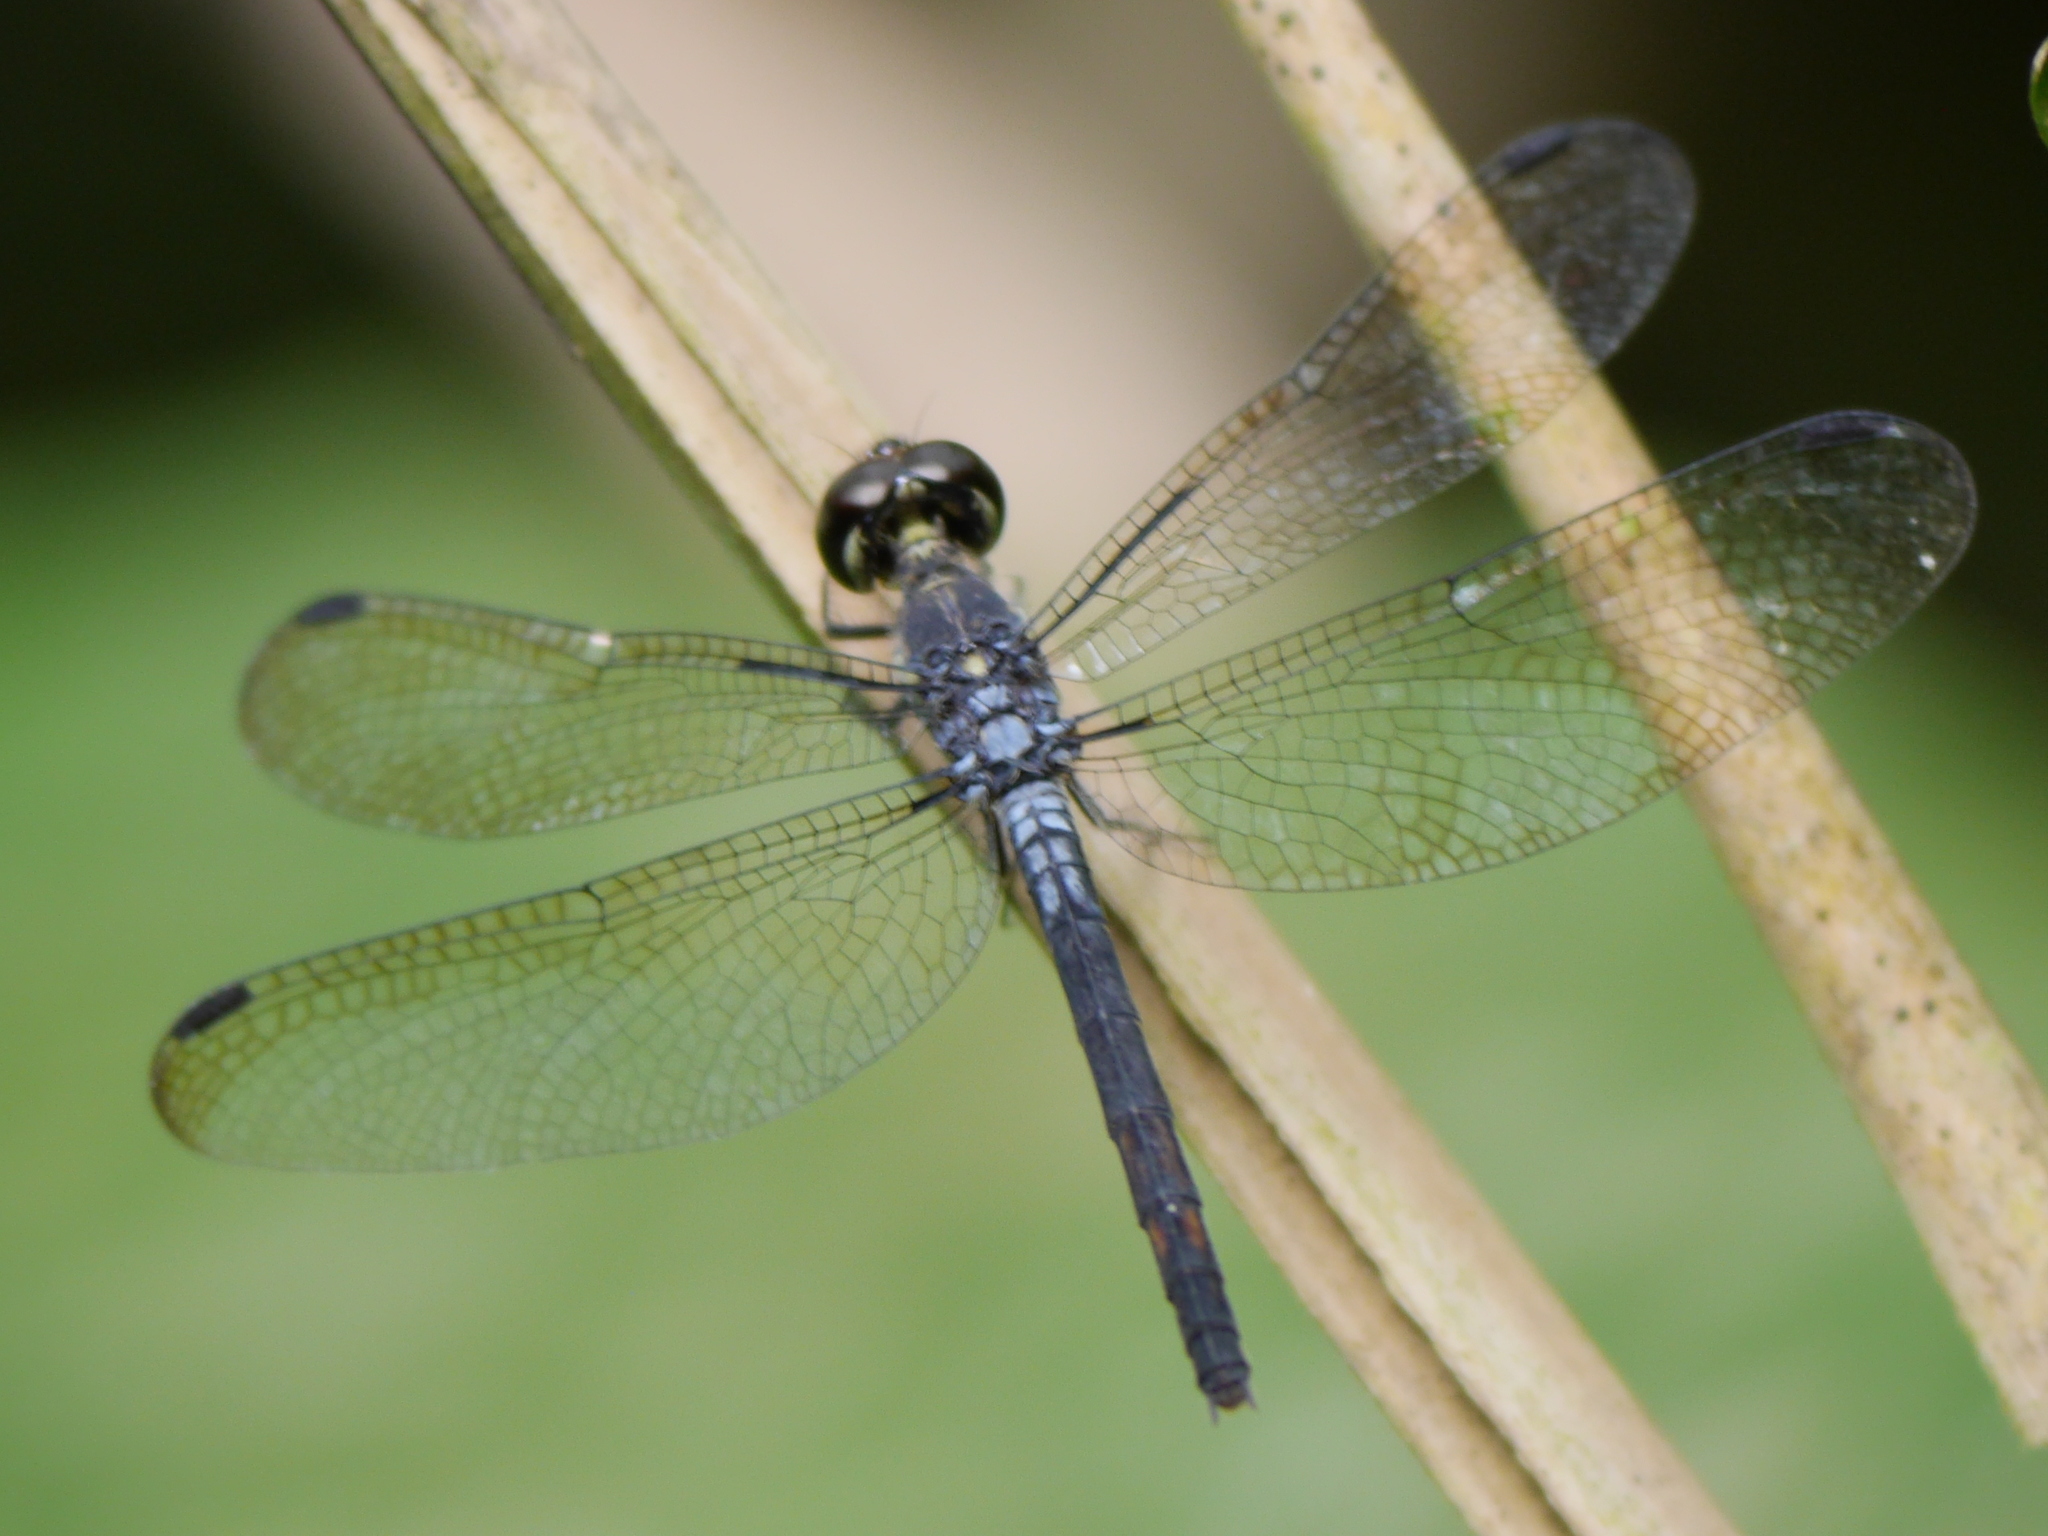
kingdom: Animalia
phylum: Arthropoda
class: Insecta
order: Odonata
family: Libellulidae
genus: Thermochoria
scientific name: Thermochoria equivocata
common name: Dash-winged piedface
